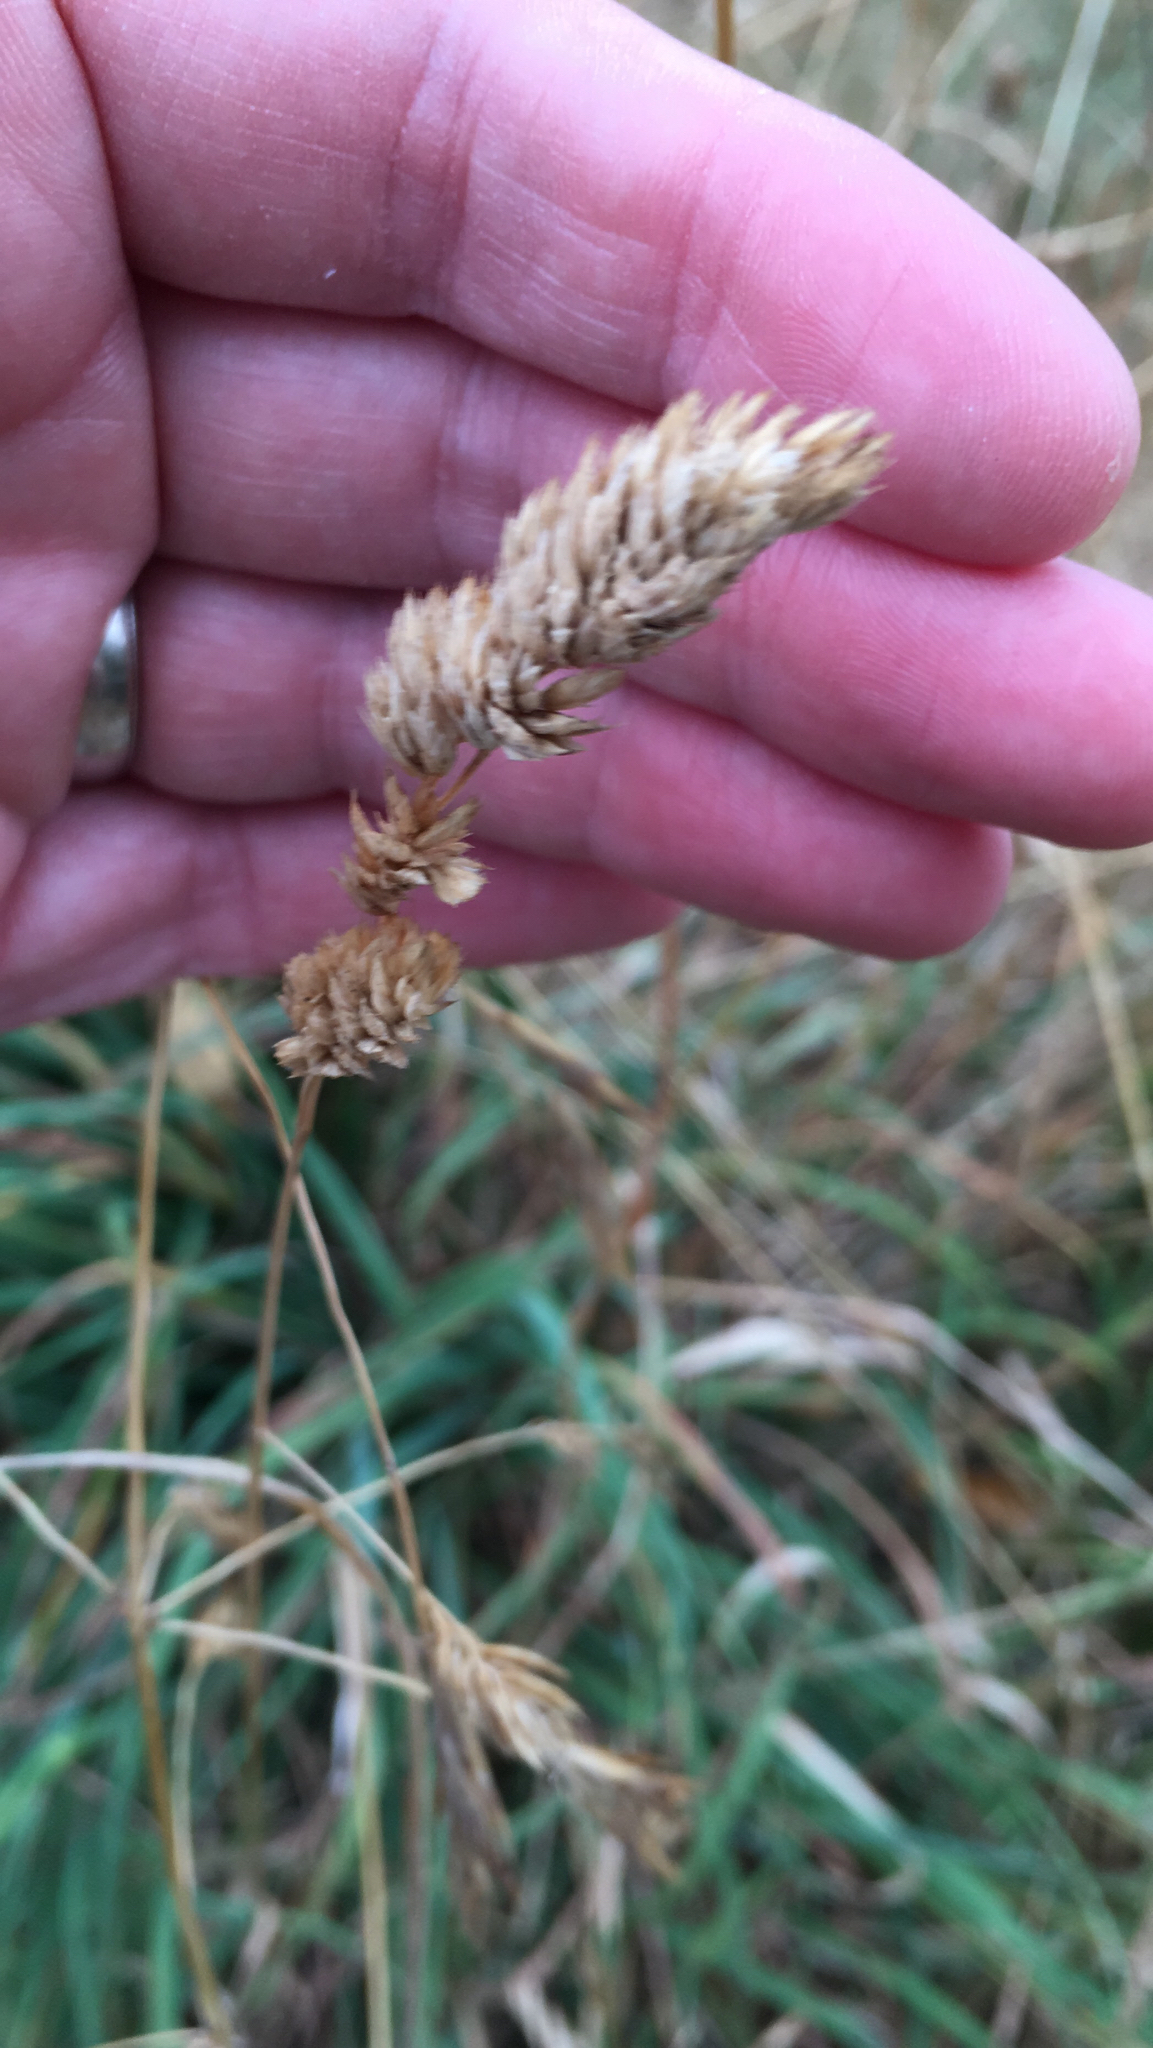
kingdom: Plantae
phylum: Tracheophyta
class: Liliopsida
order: Poales
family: Poaceae
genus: Dactylis
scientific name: Dactylis glomerata
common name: Orchardgrass
